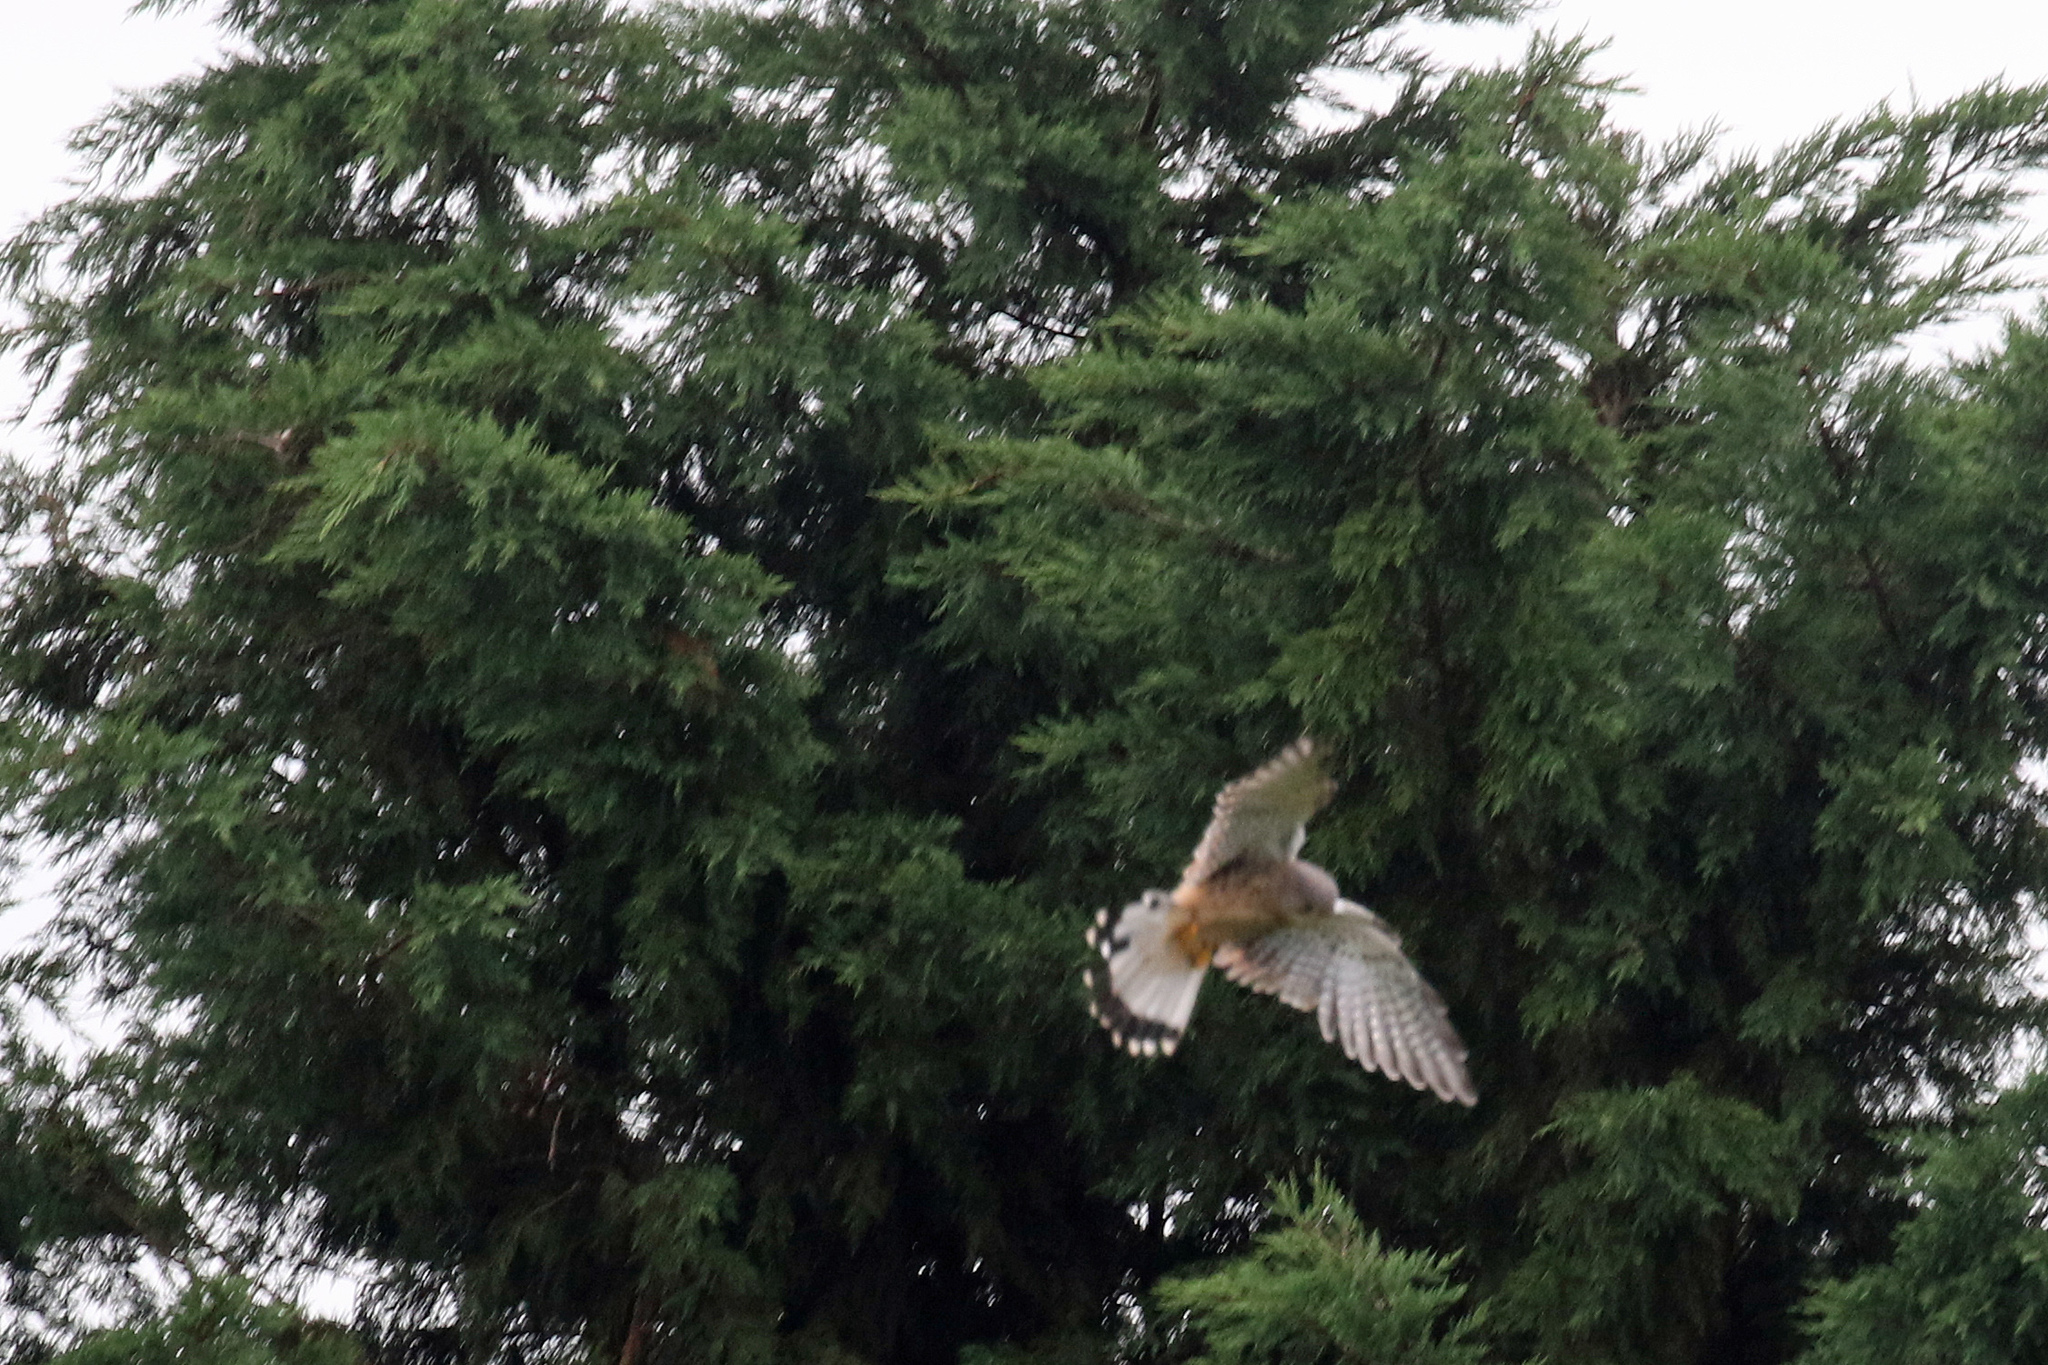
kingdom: Animalia
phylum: Chordata
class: Aves
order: Falconiformes
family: Falconidae
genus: Falco
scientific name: Falco tinnunculus
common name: Common kestrel
